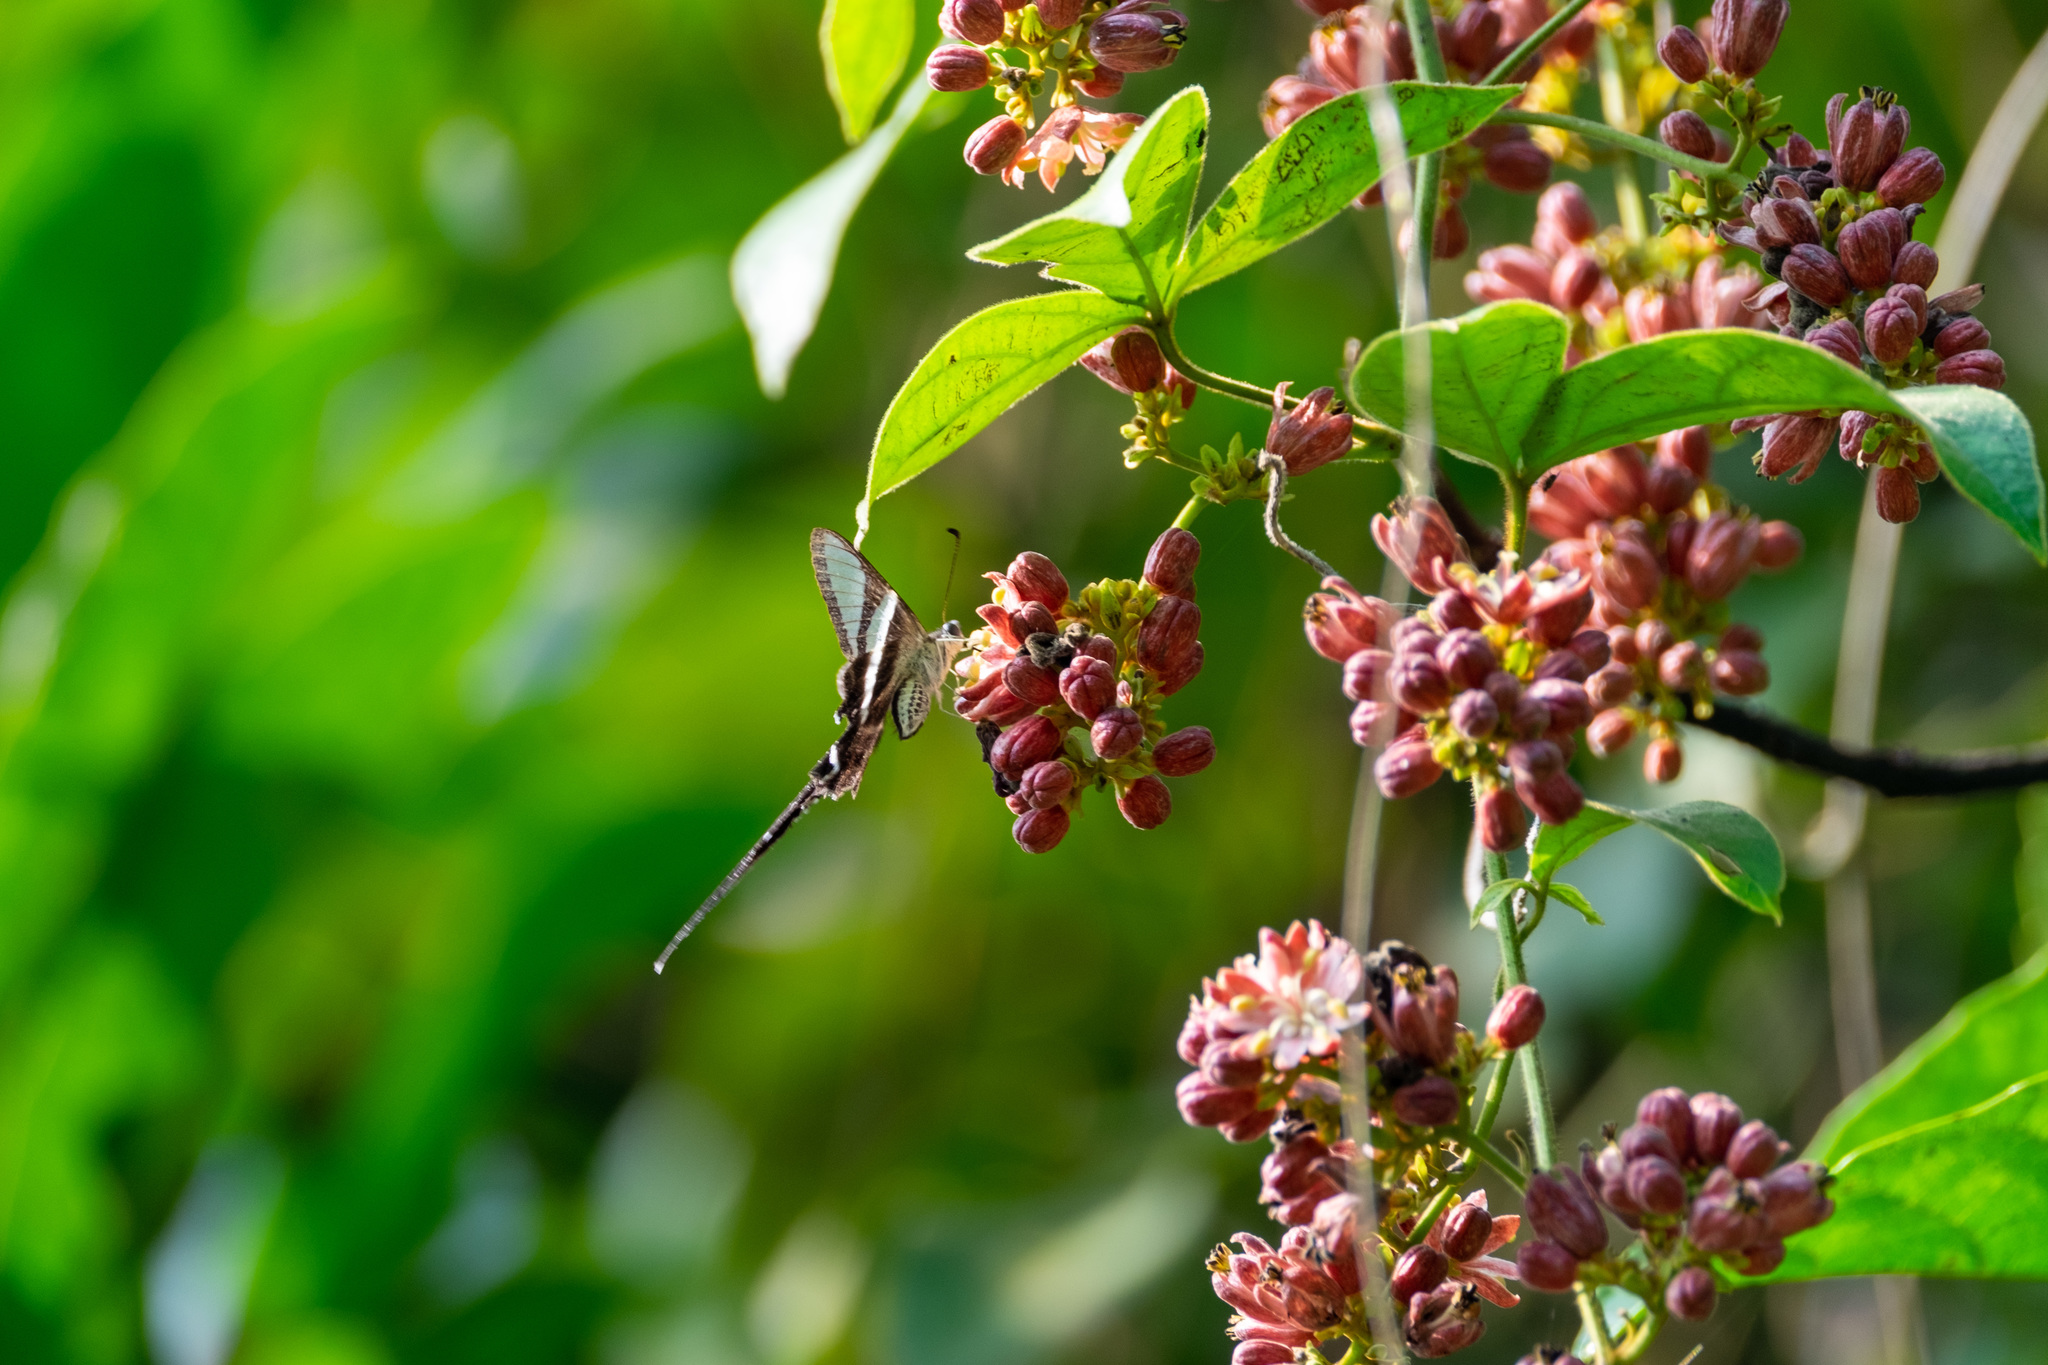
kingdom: Animalia
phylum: Arthropoda
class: Insecta
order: Lepidoptera
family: Papilionidae
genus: Lamproptera
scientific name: Lamproptera curius
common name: White dragontail
